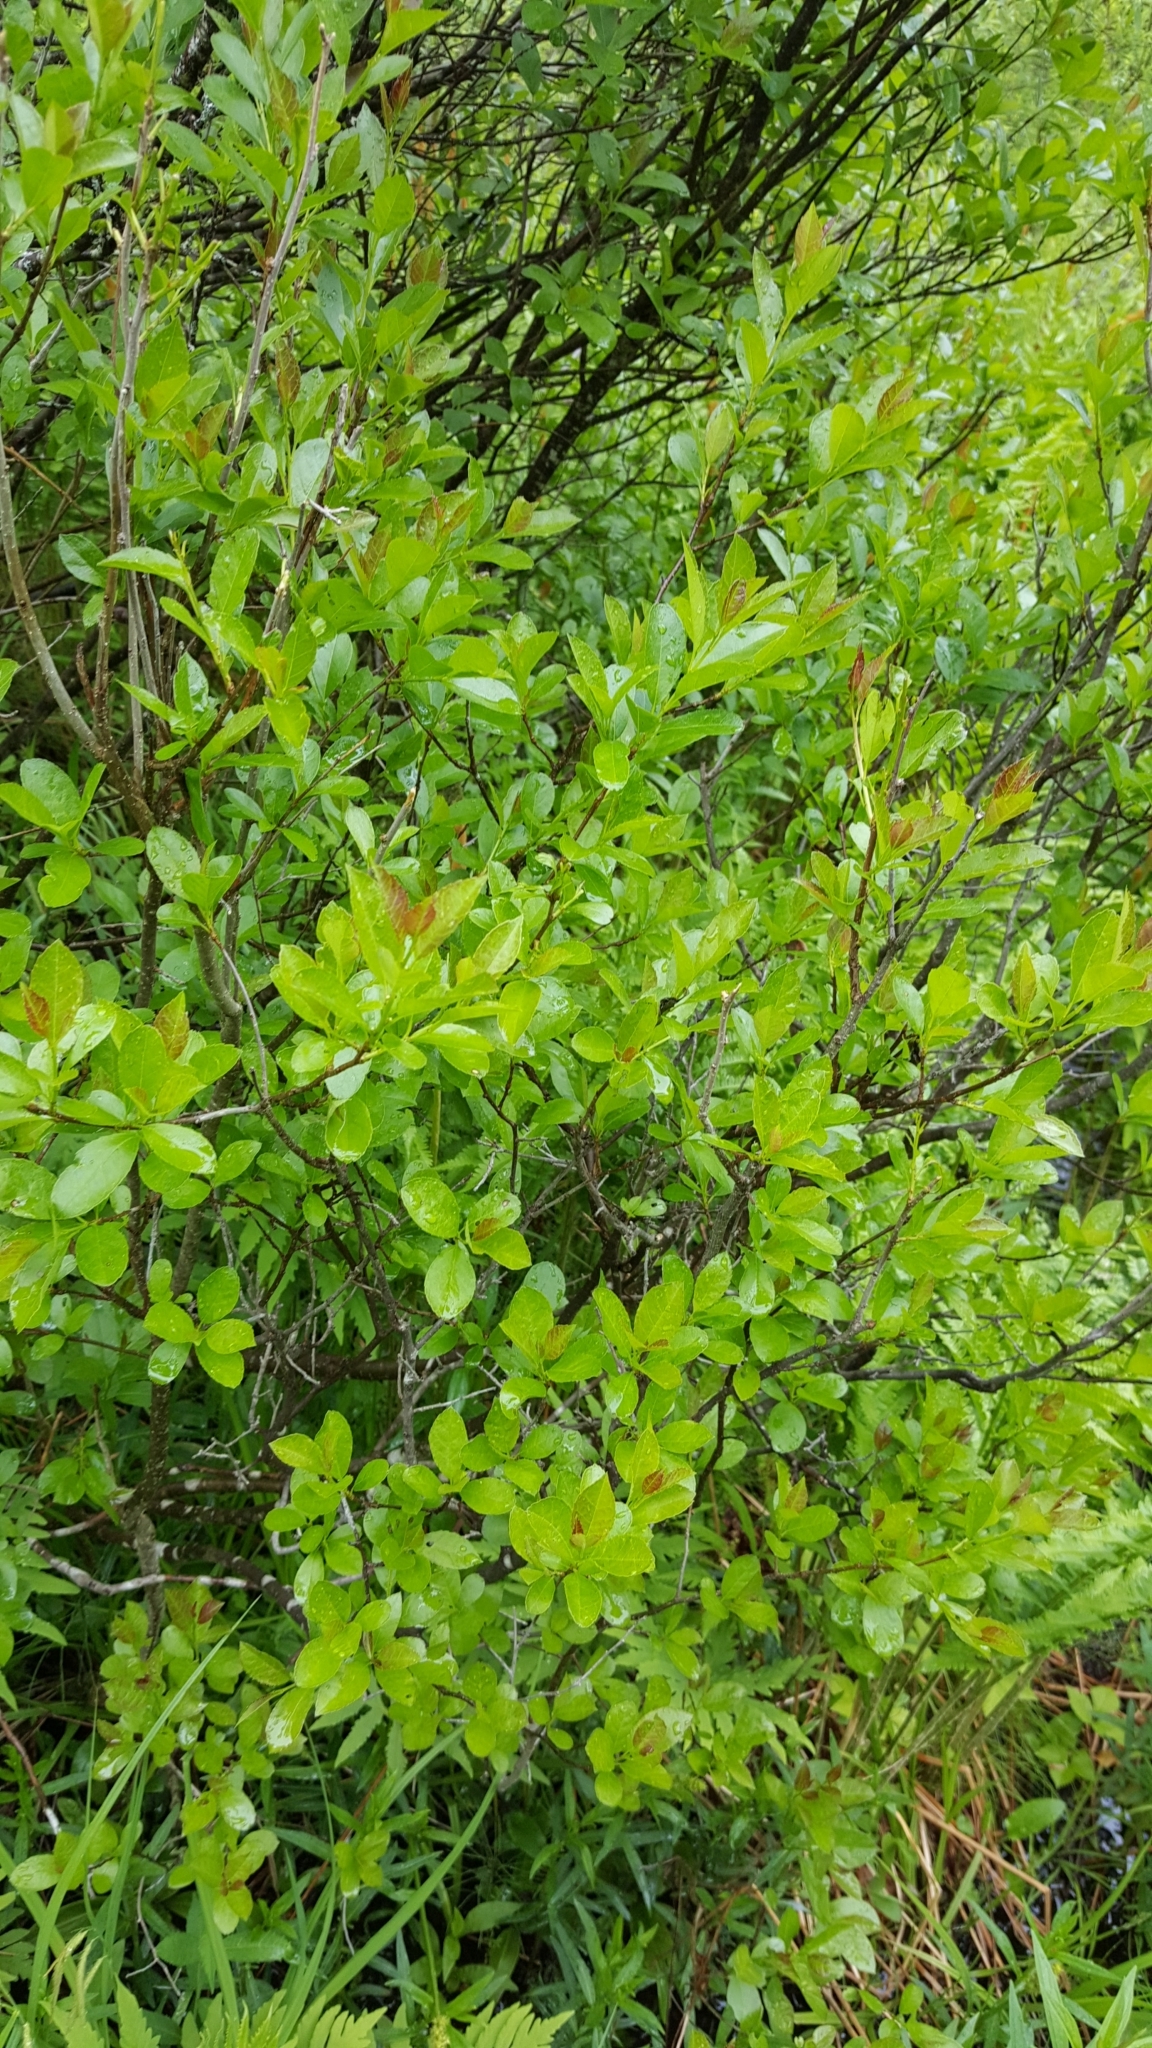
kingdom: Plantae
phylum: Tracheophyta
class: Magnoliopsida
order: Aquifoliales
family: Aquifoliaceae
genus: Ilex
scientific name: Ilex verticillata
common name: Virginia winterberry
